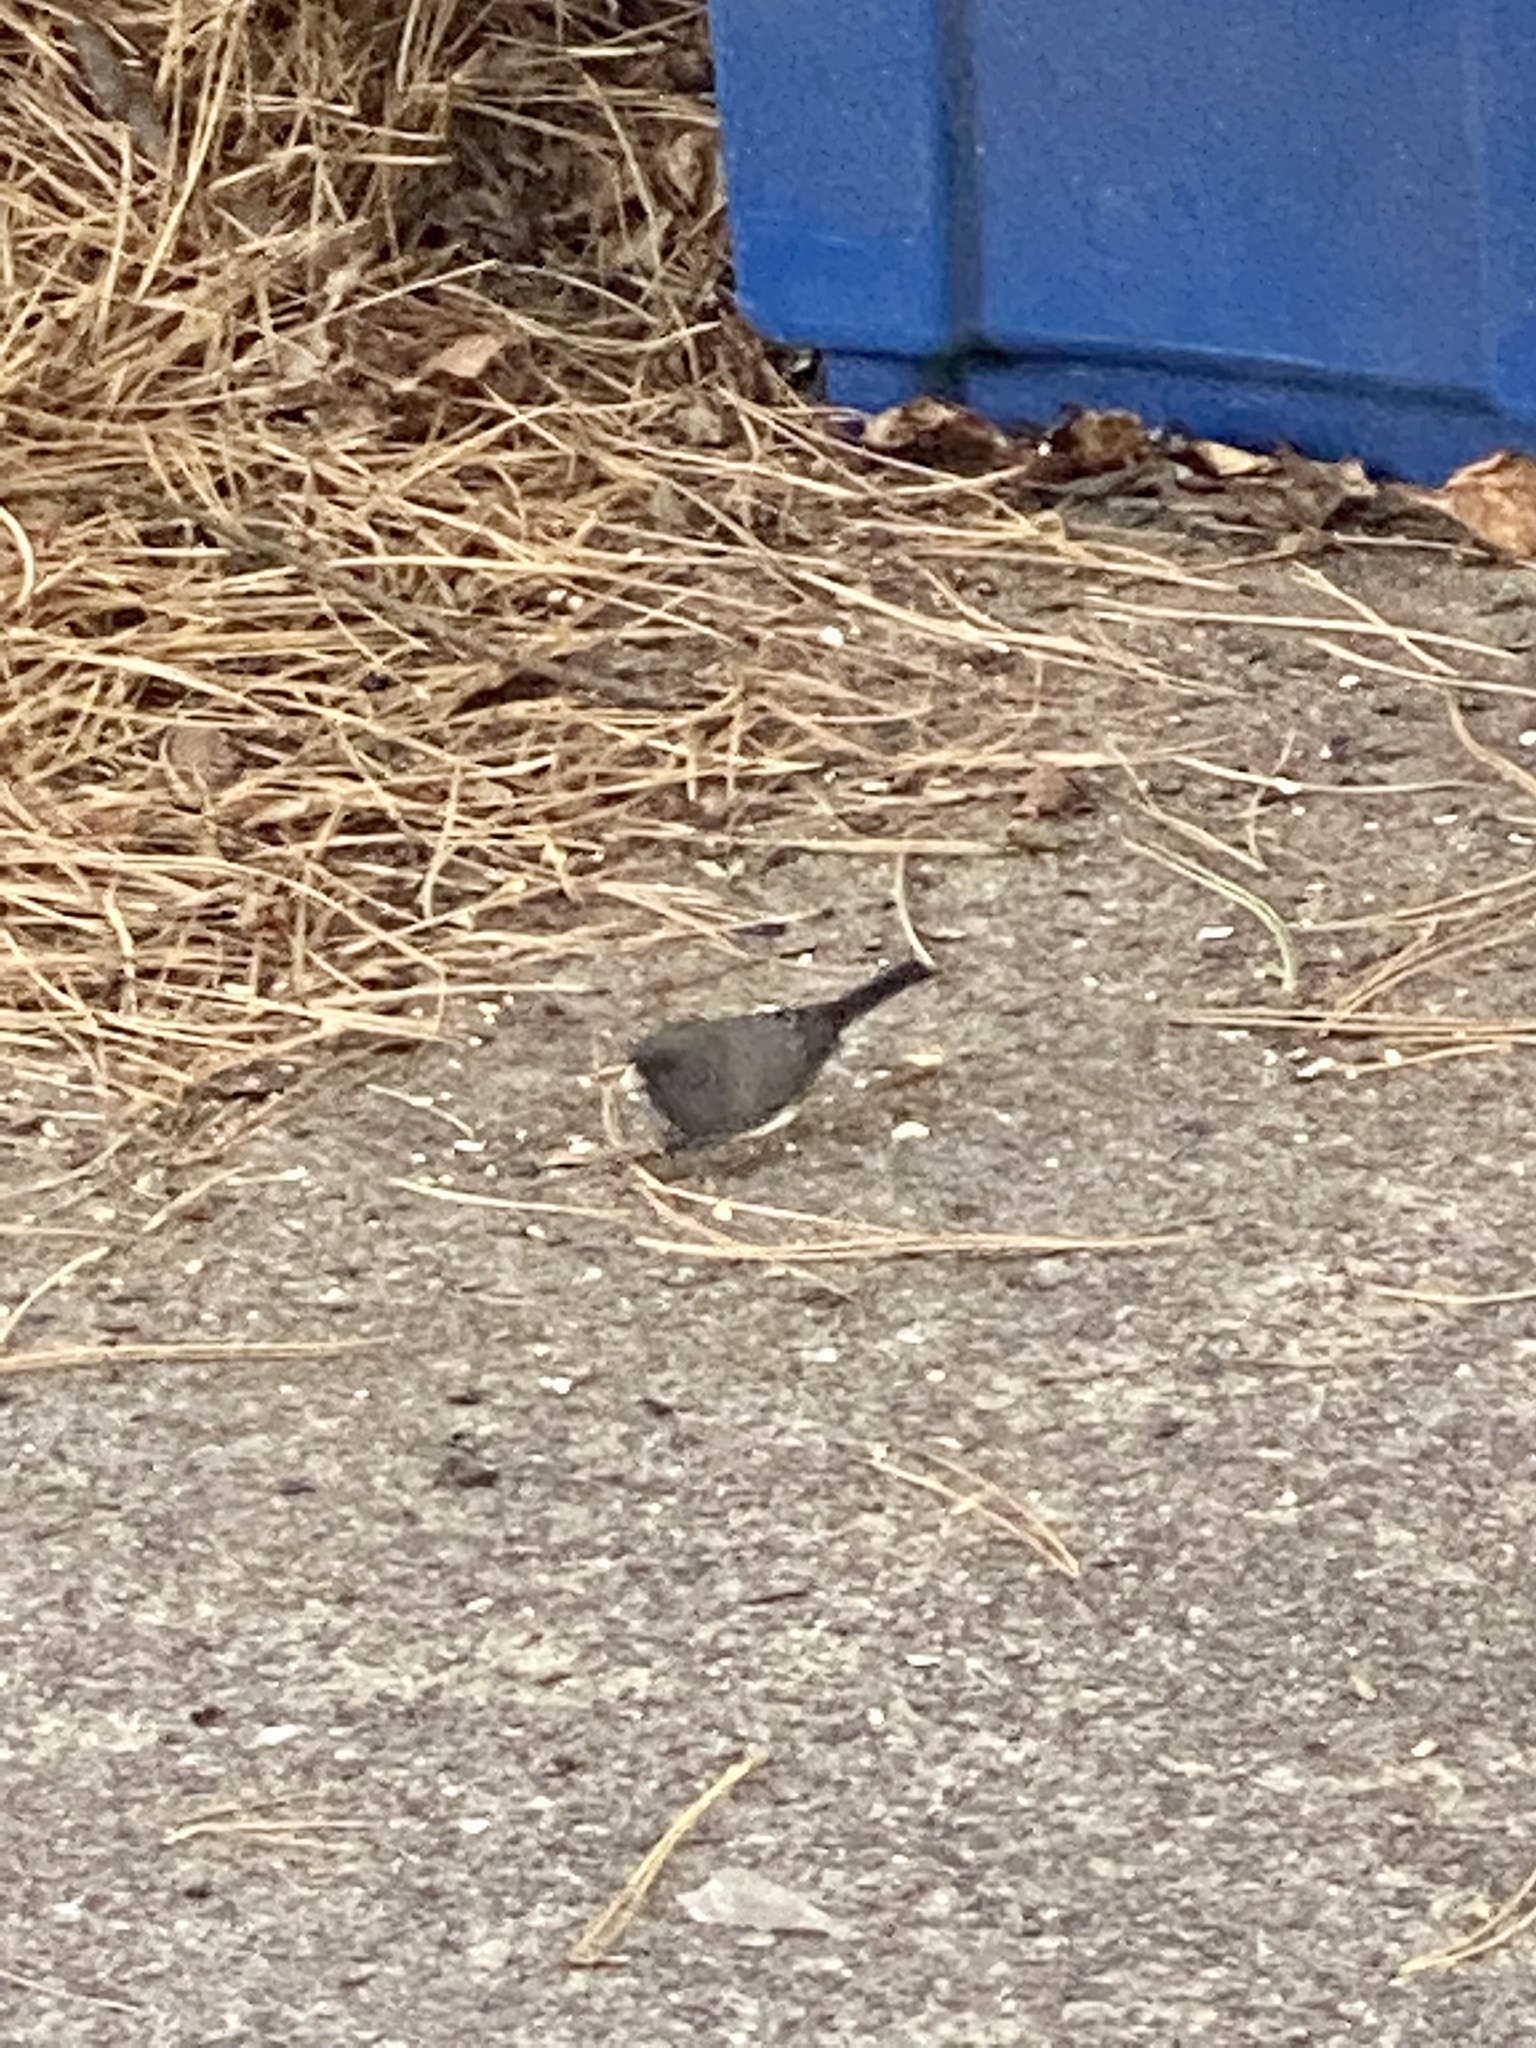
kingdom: Animalia
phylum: Chordata
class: Aves
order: Passeriformes
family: Passerellidae
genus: Junco
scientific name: Junco hyemalis
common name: Dark-eyed junco
